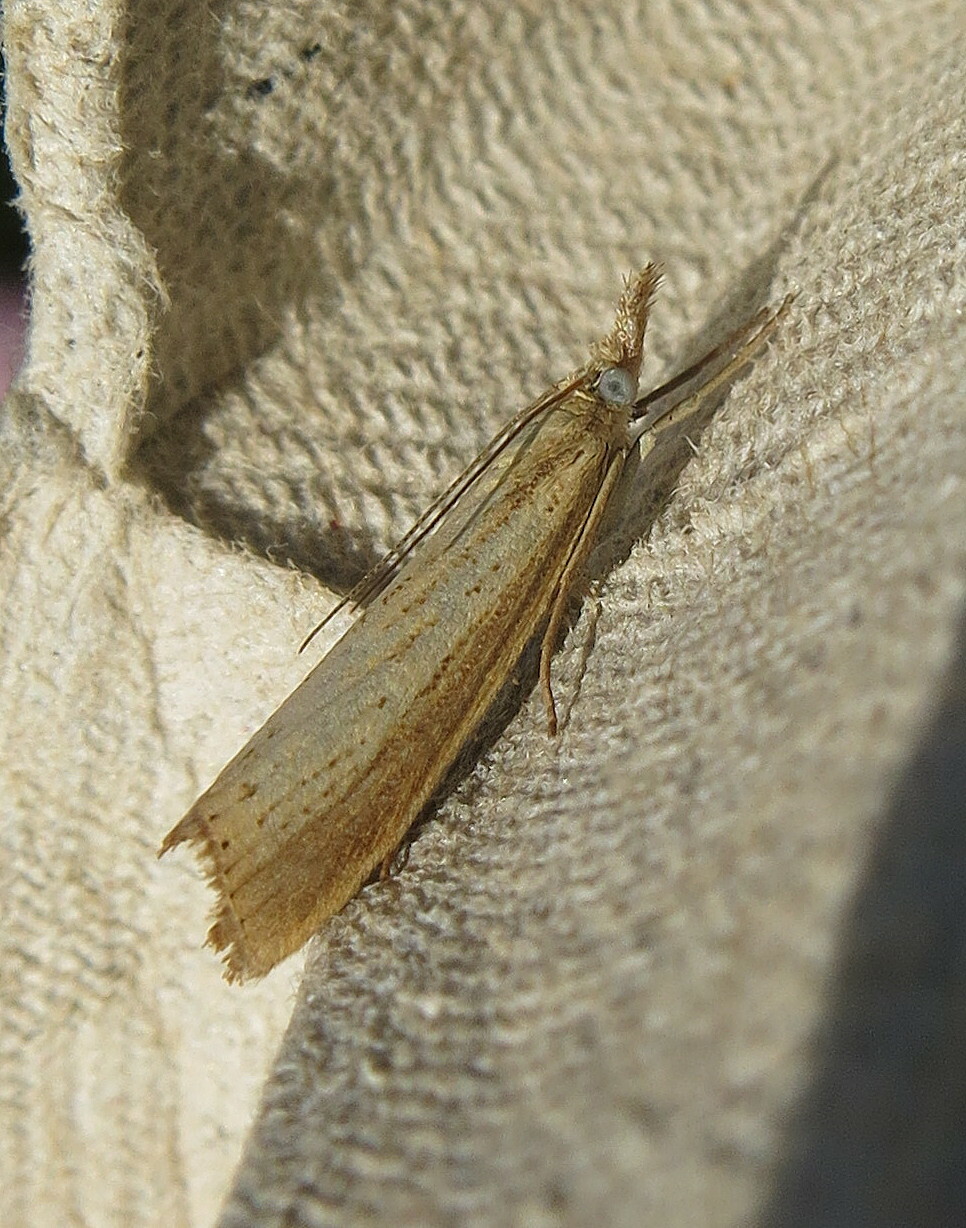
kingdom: Animalia
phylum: Arthropoda
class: Insecta
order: Lepidoptera
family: Crambidae
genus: Agriphila
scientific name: Agriphila straminella
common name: Straw grass-veneer
